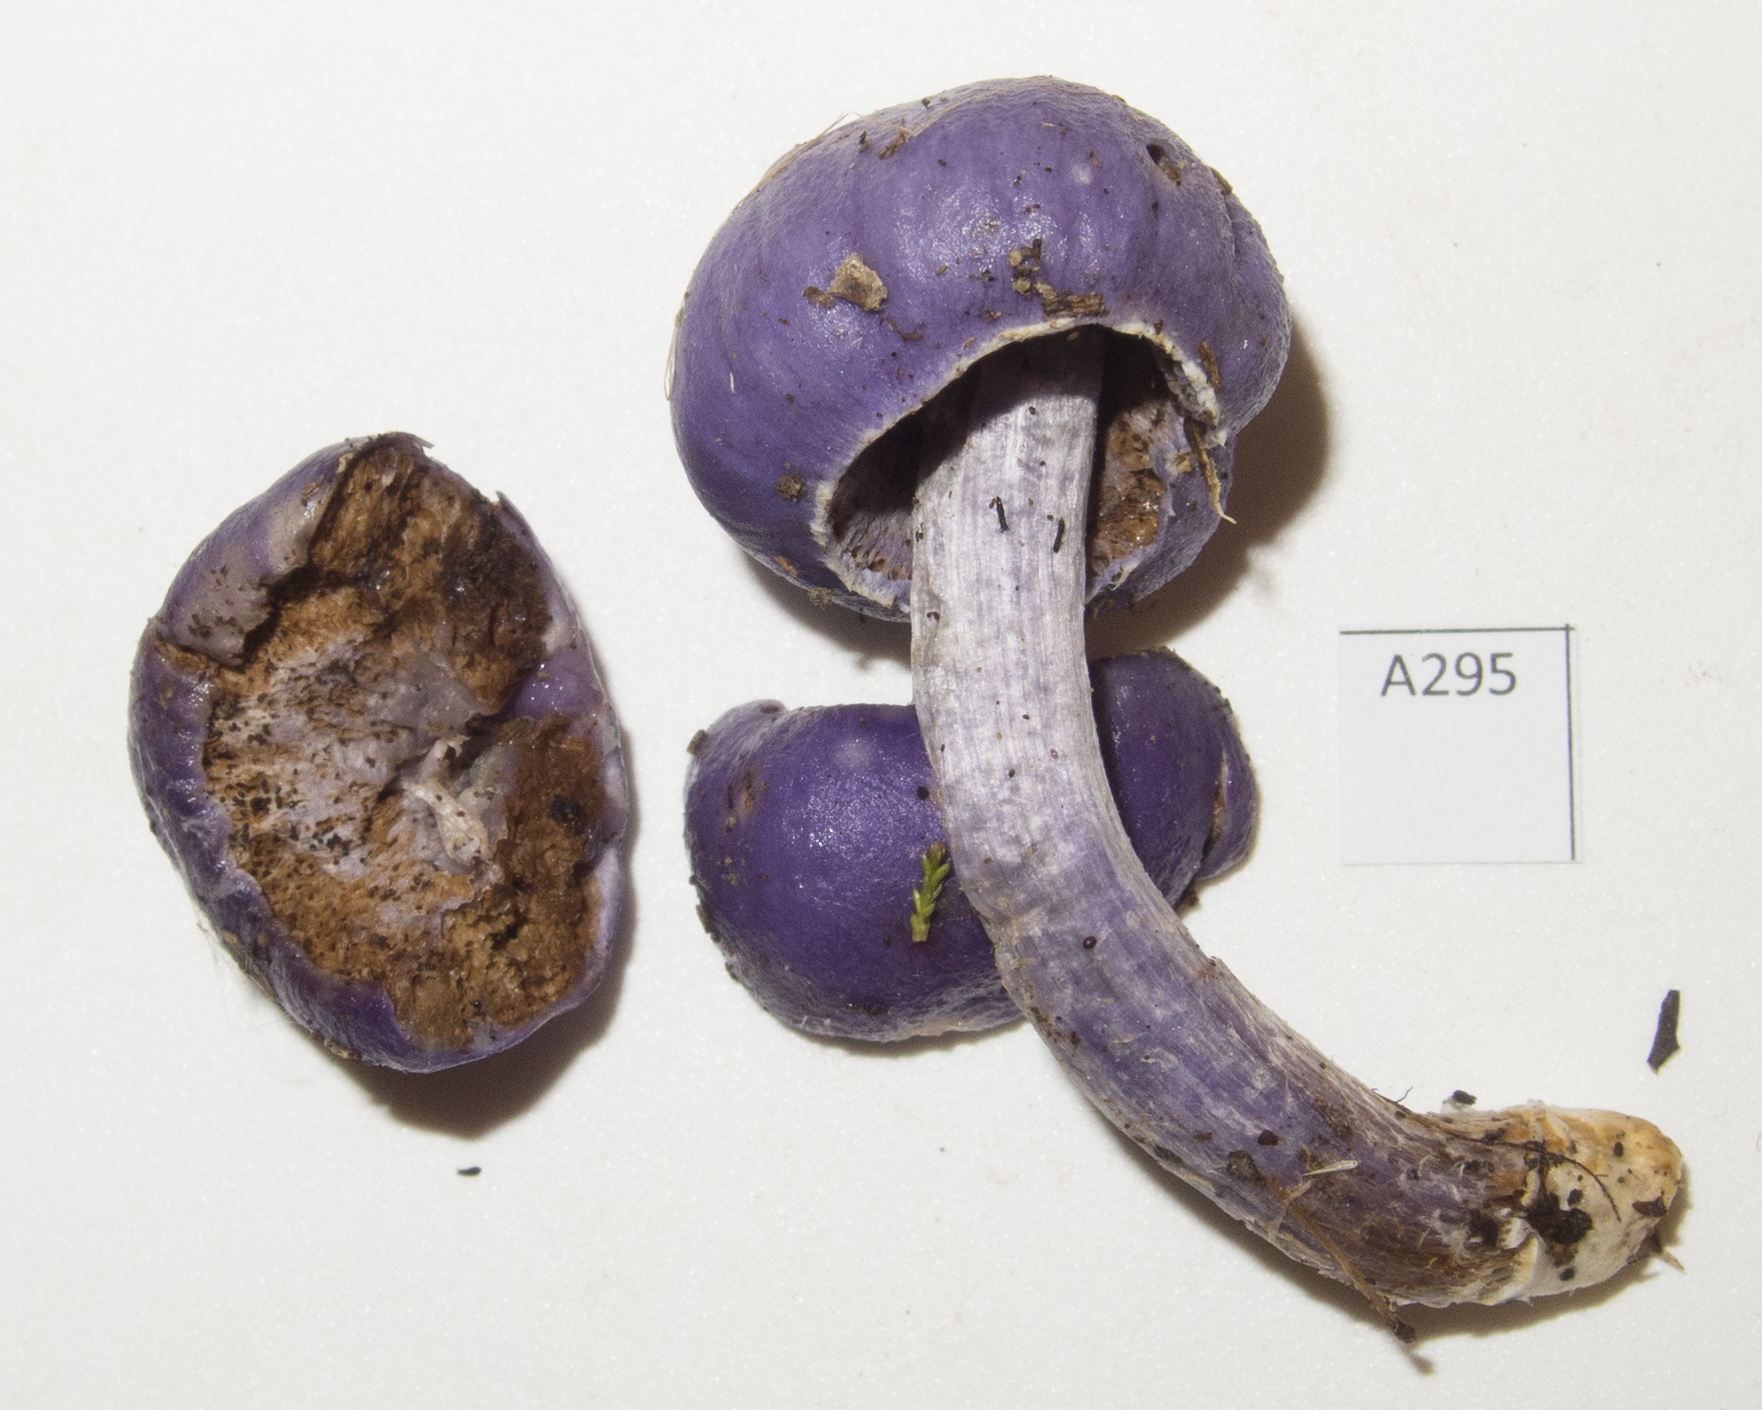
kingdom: Fungi
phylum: Basidiomycota
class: Agaricomycetes
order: Agaricales
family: Cortinariaceae
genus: Cortinarius
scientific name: Cortinarius porphyroideus
